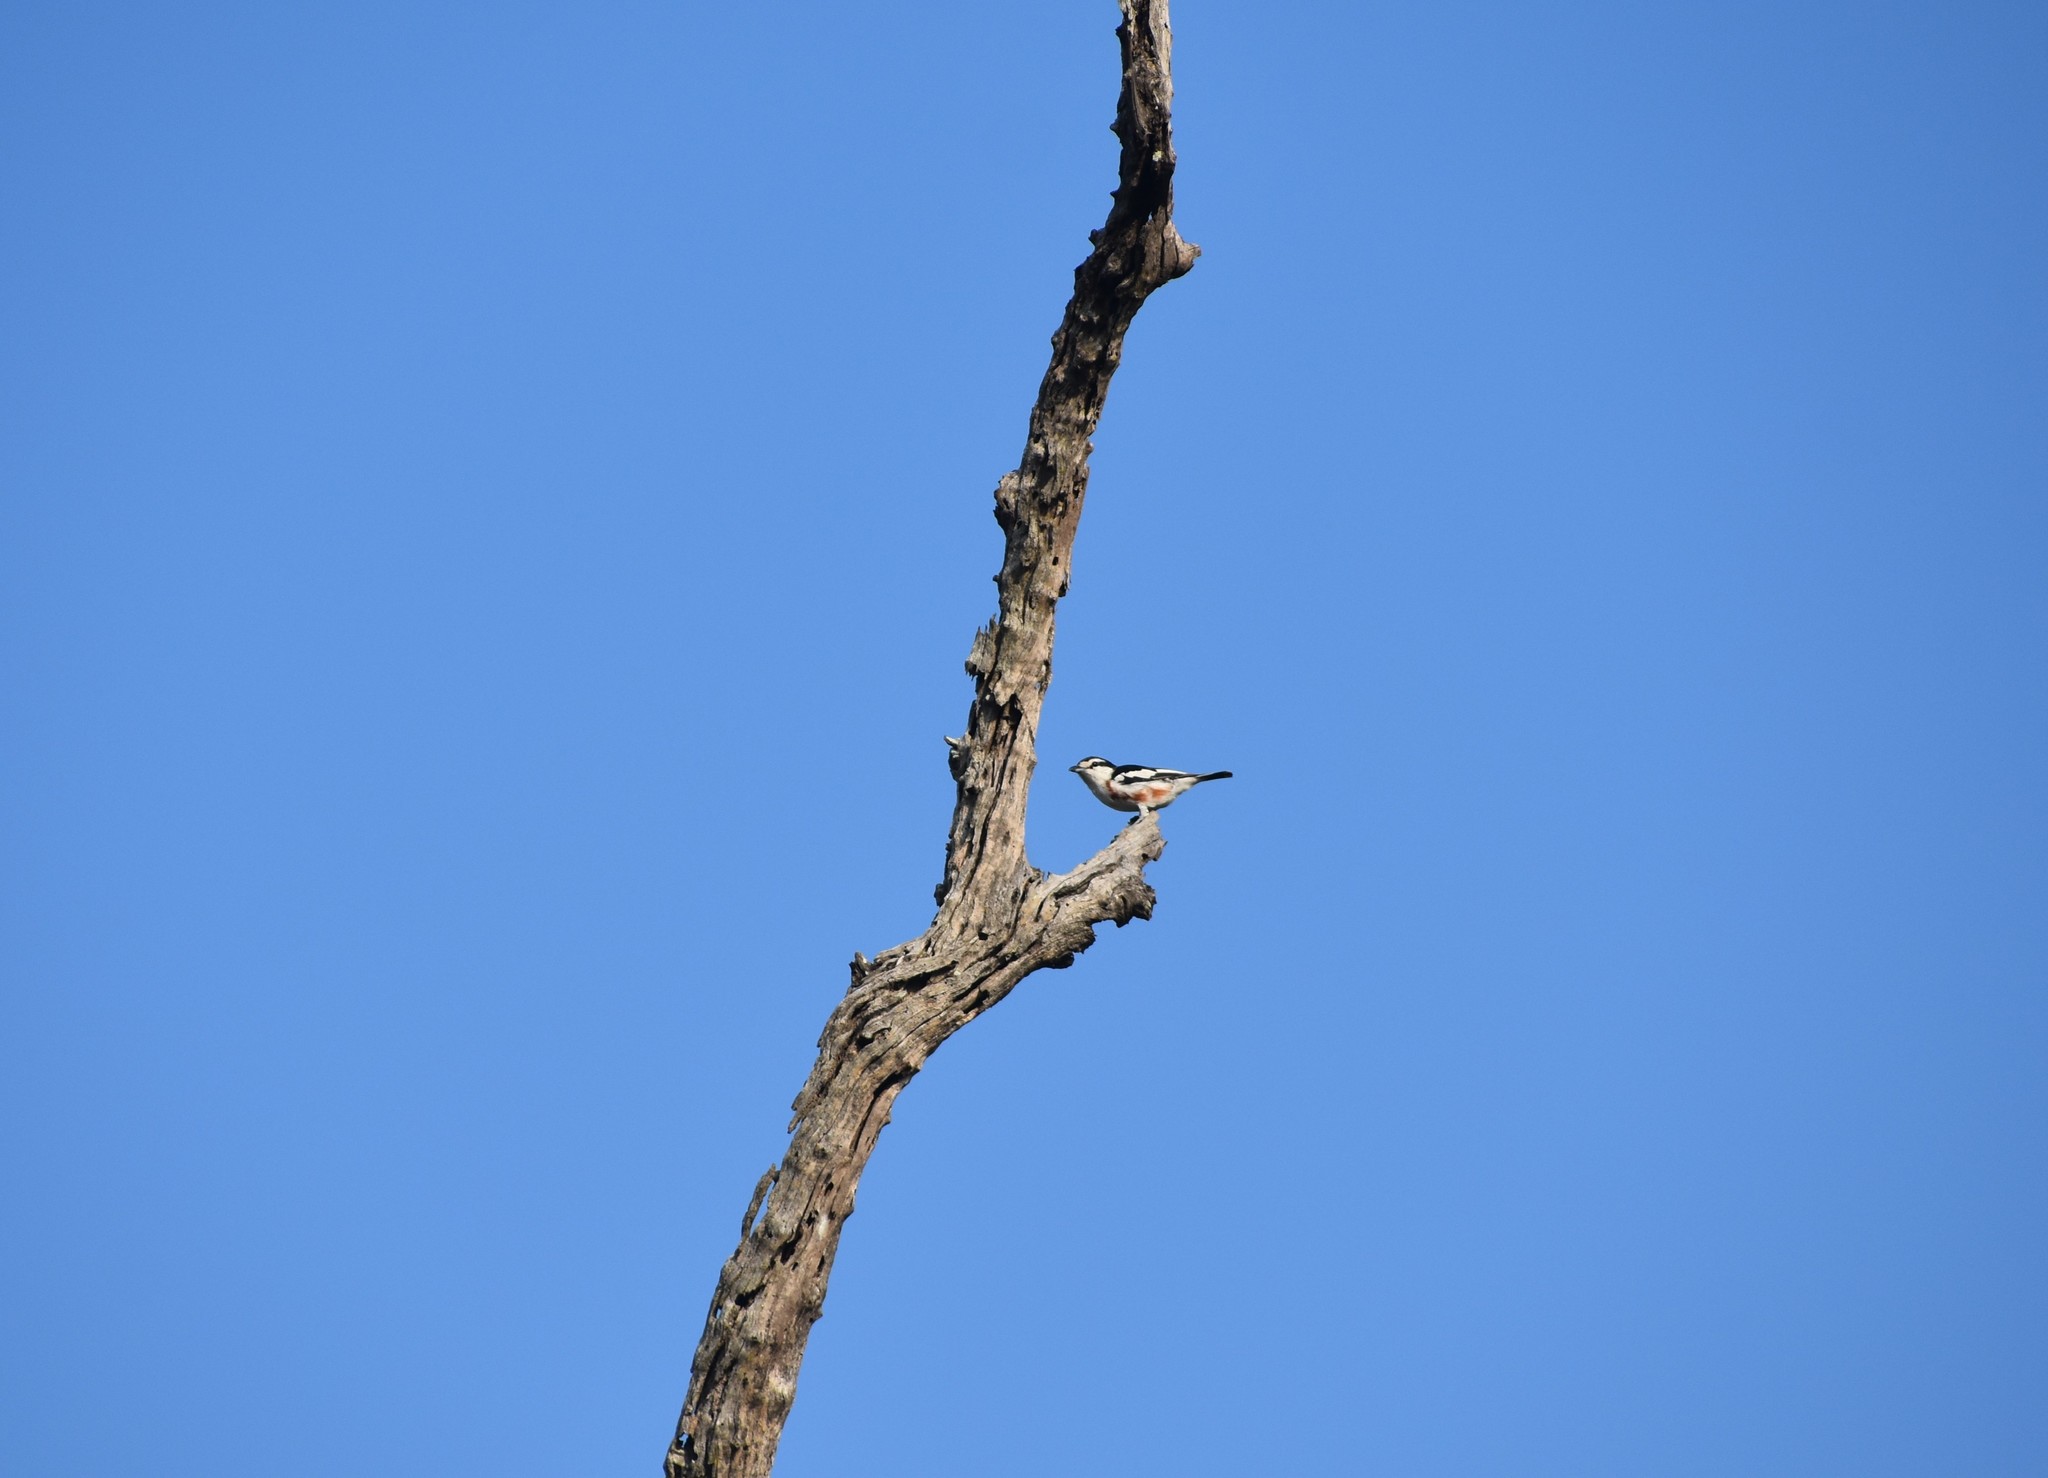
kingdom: Animalia
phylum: Chordata
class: Aves
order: Passeriformes
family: Malaconotidae
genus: Nilaus
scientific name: Nilaus afer
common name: Brubru
